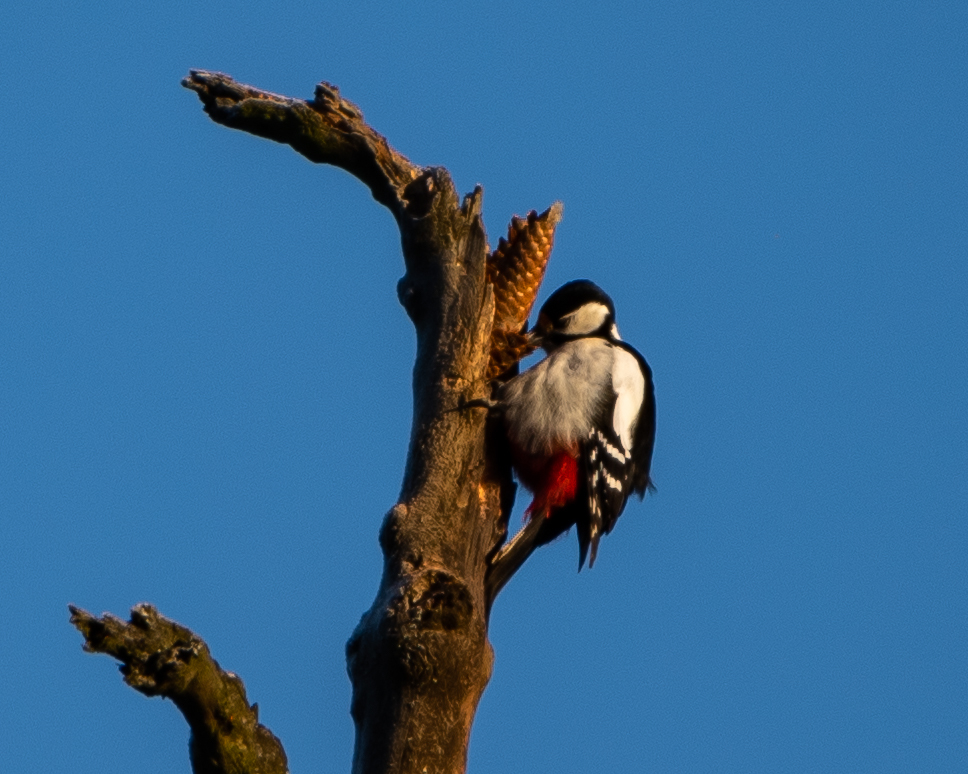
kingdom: Animalia
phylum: Chordata
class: Aves
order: Piciformes
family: Picidae
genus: Dendrocopos
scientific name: Dendrocopos major
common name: Great spotted woodpecker
